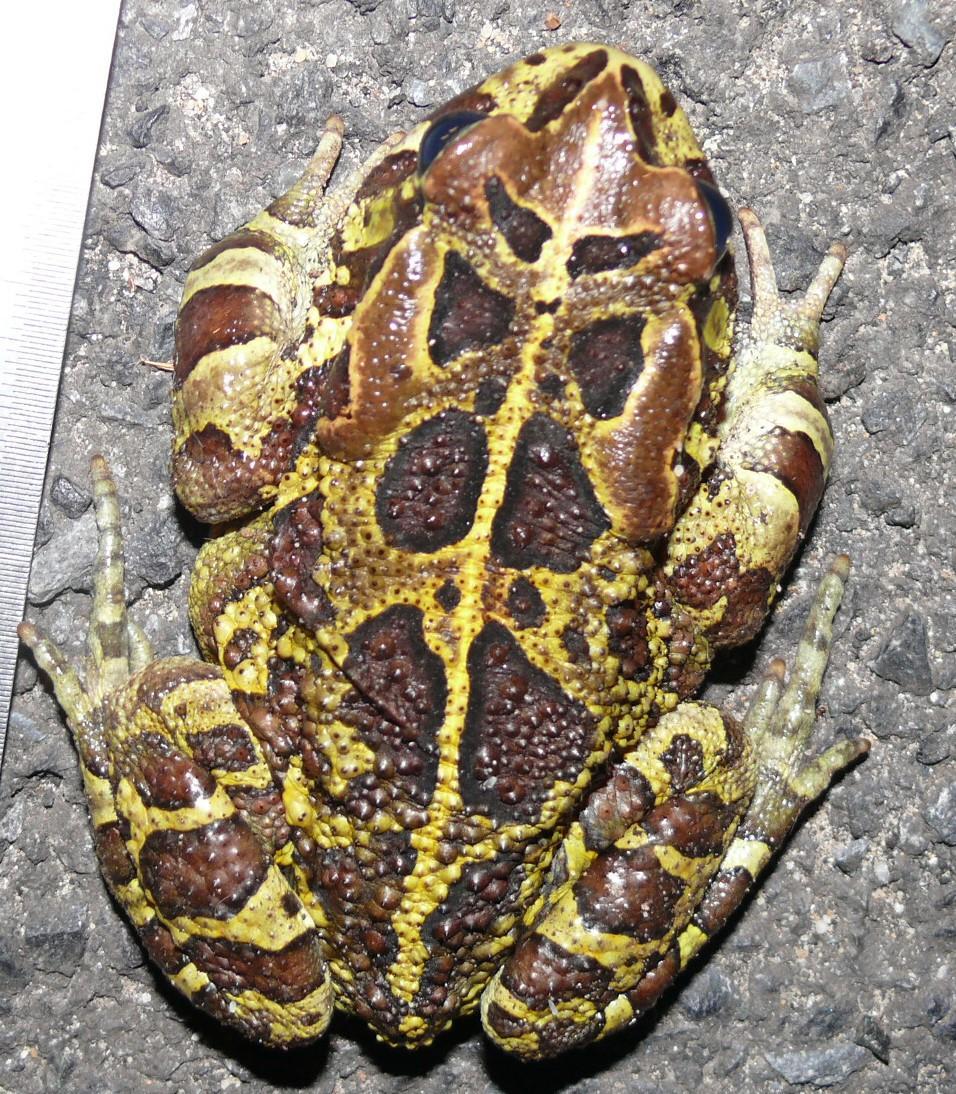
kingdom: Animalia
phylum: Chordata
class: Amphibia
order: Anura
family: Bufonidae
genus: Sclerophrys
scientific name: Sclerophrys pantherina
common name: Panther toad
